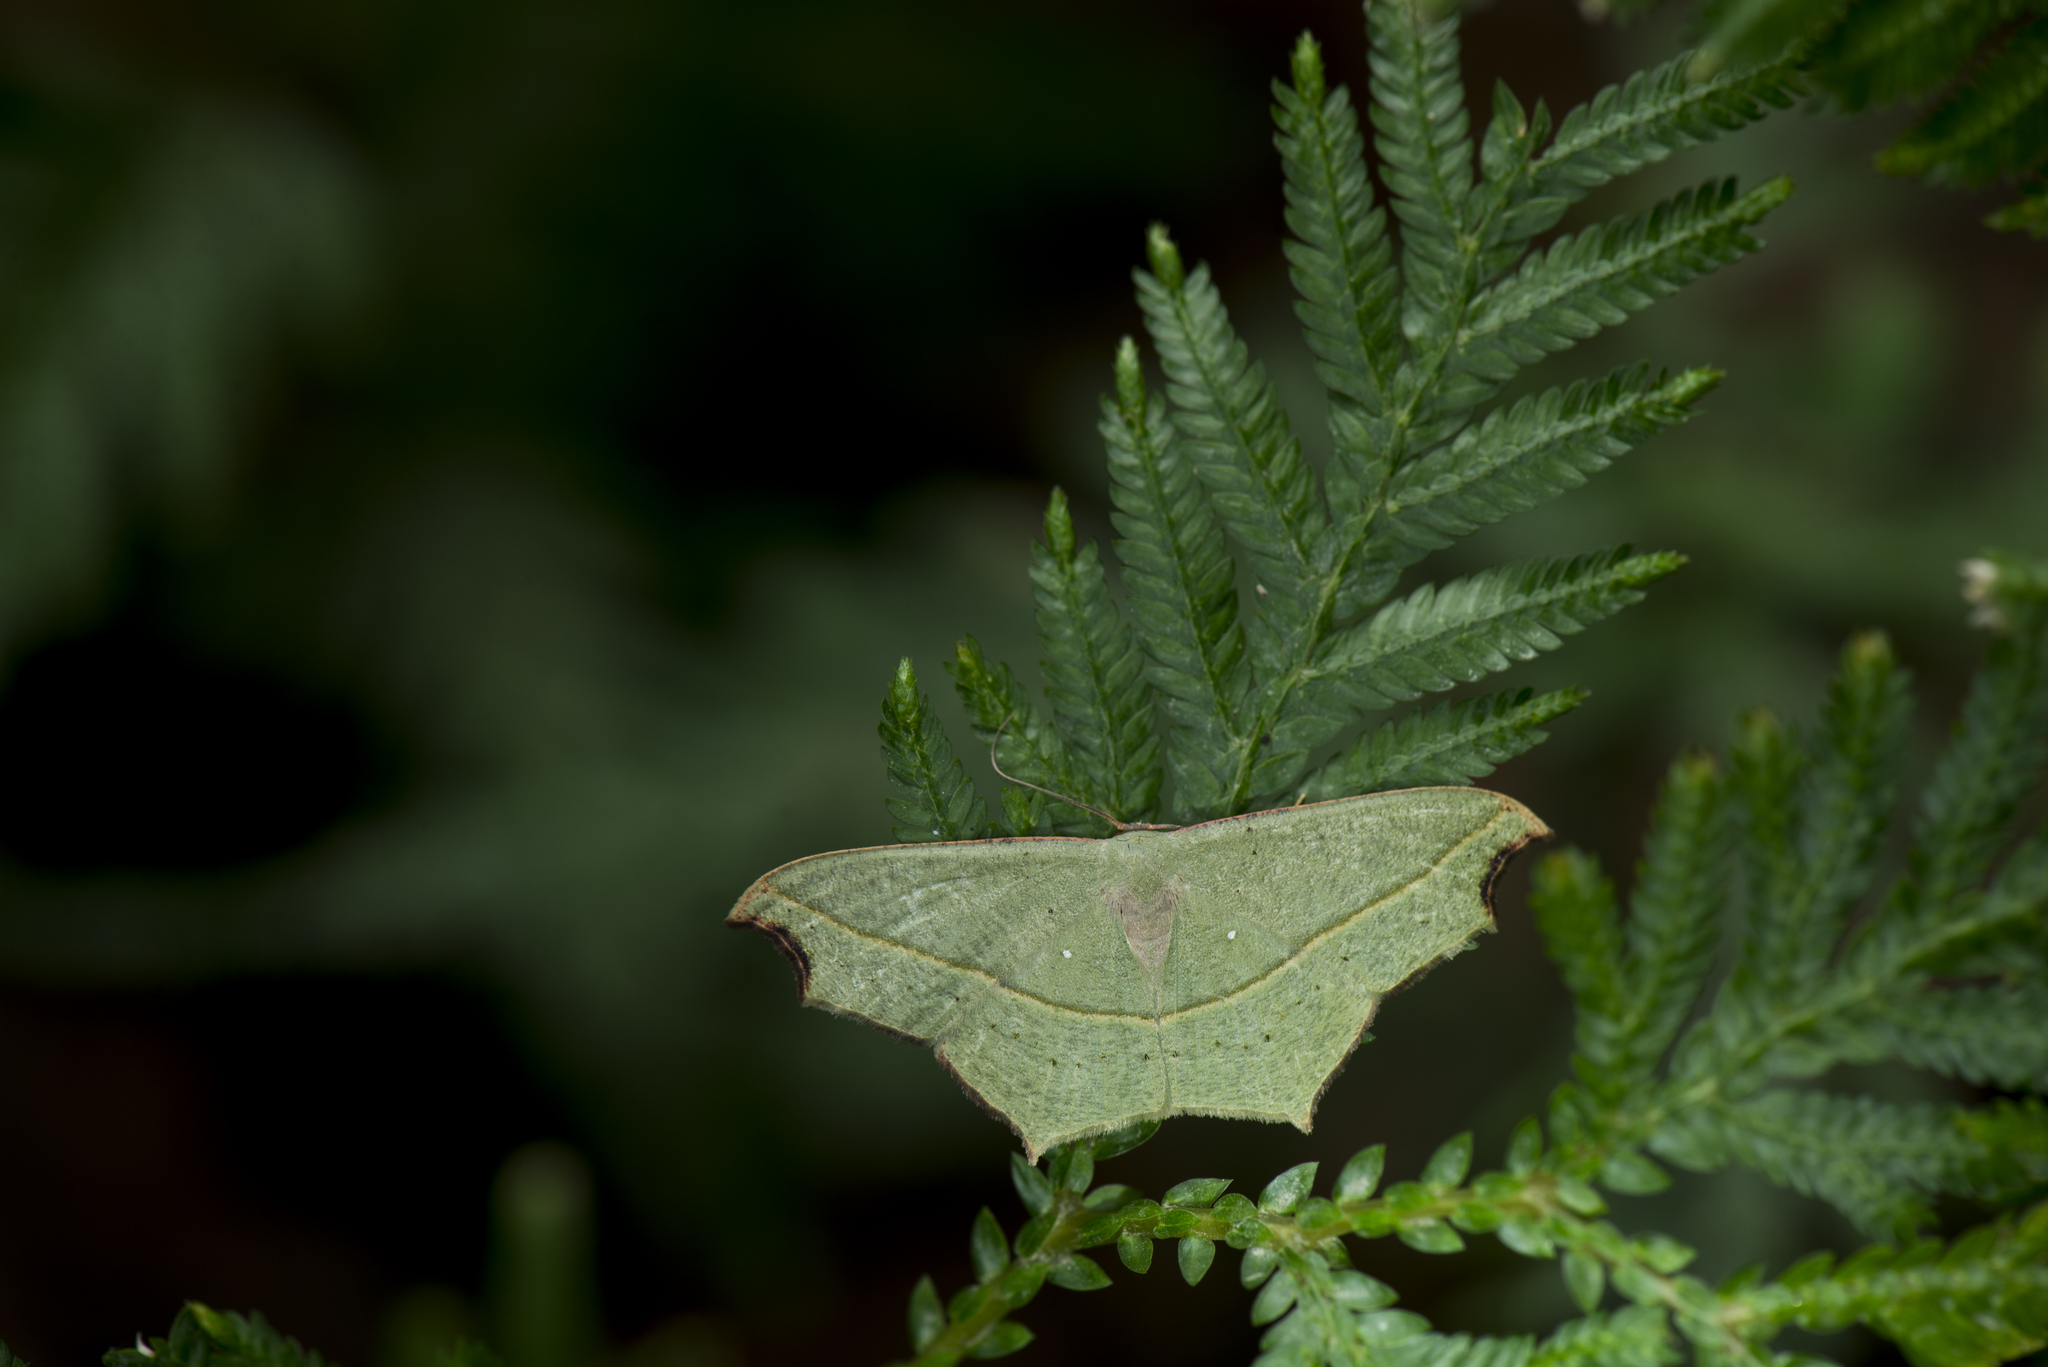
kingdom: Animalia
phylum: Arthropoda
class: Insecta
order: Lepidoptera
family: Geometridae
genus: Traminda
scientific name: Traminda aventiaria
